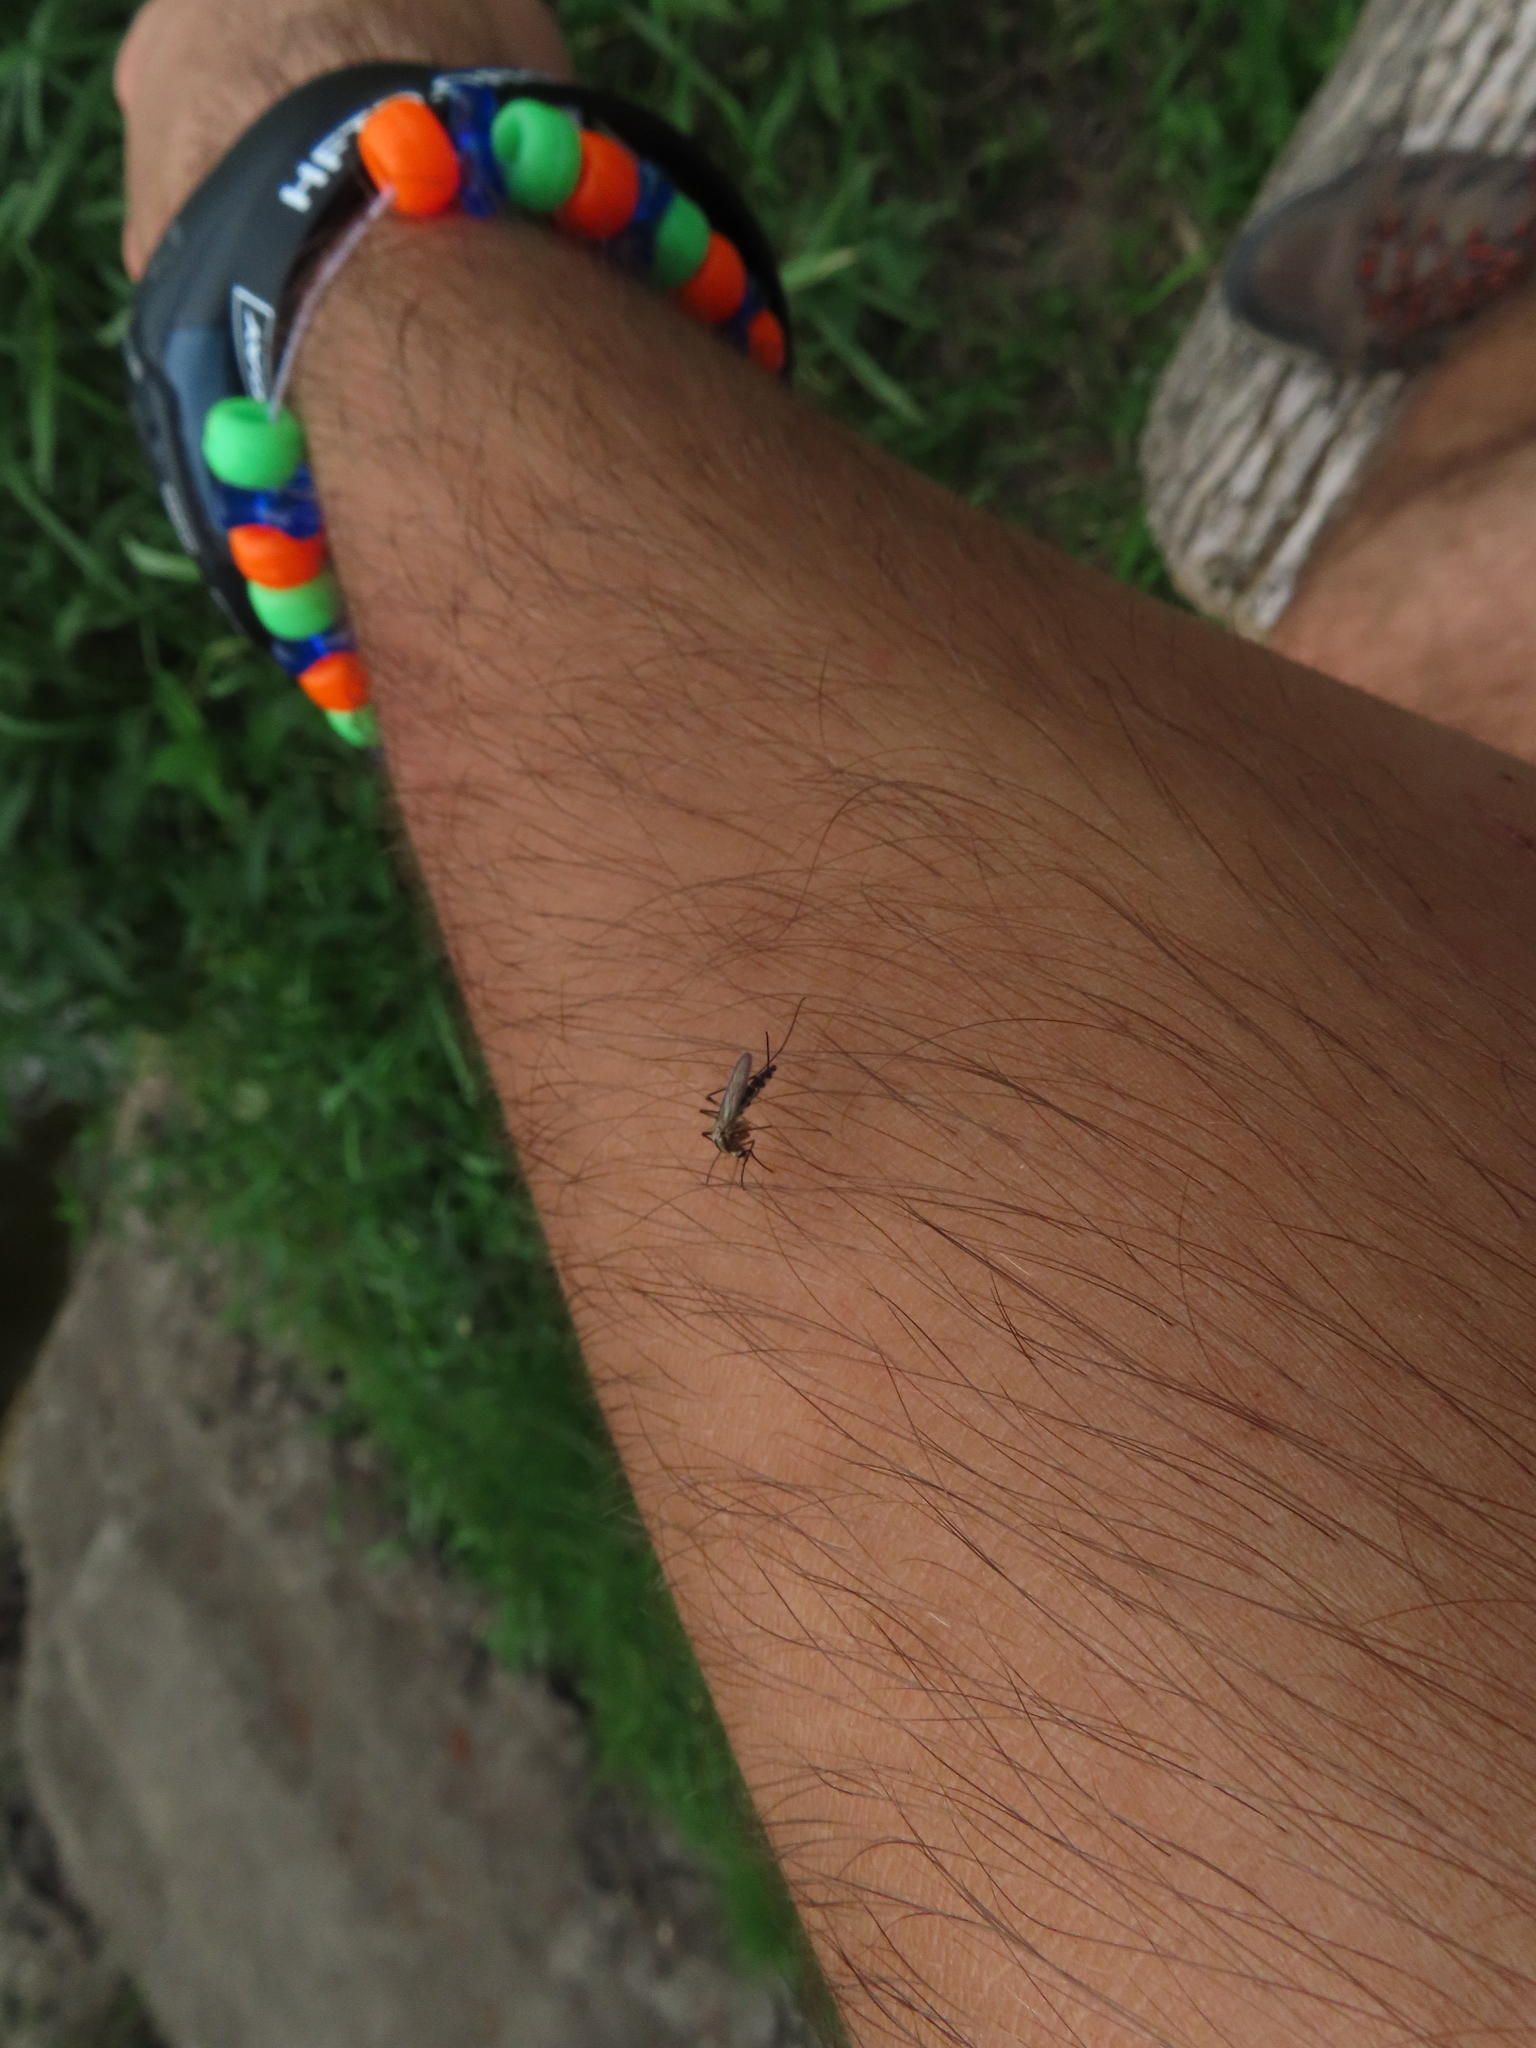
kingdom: Animalia
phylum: Arthropoda
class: Insecta
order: Diptera
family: Culicidae
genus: Aedes
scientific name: Aedes trivittatus
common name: Plains floodwater mosquito
